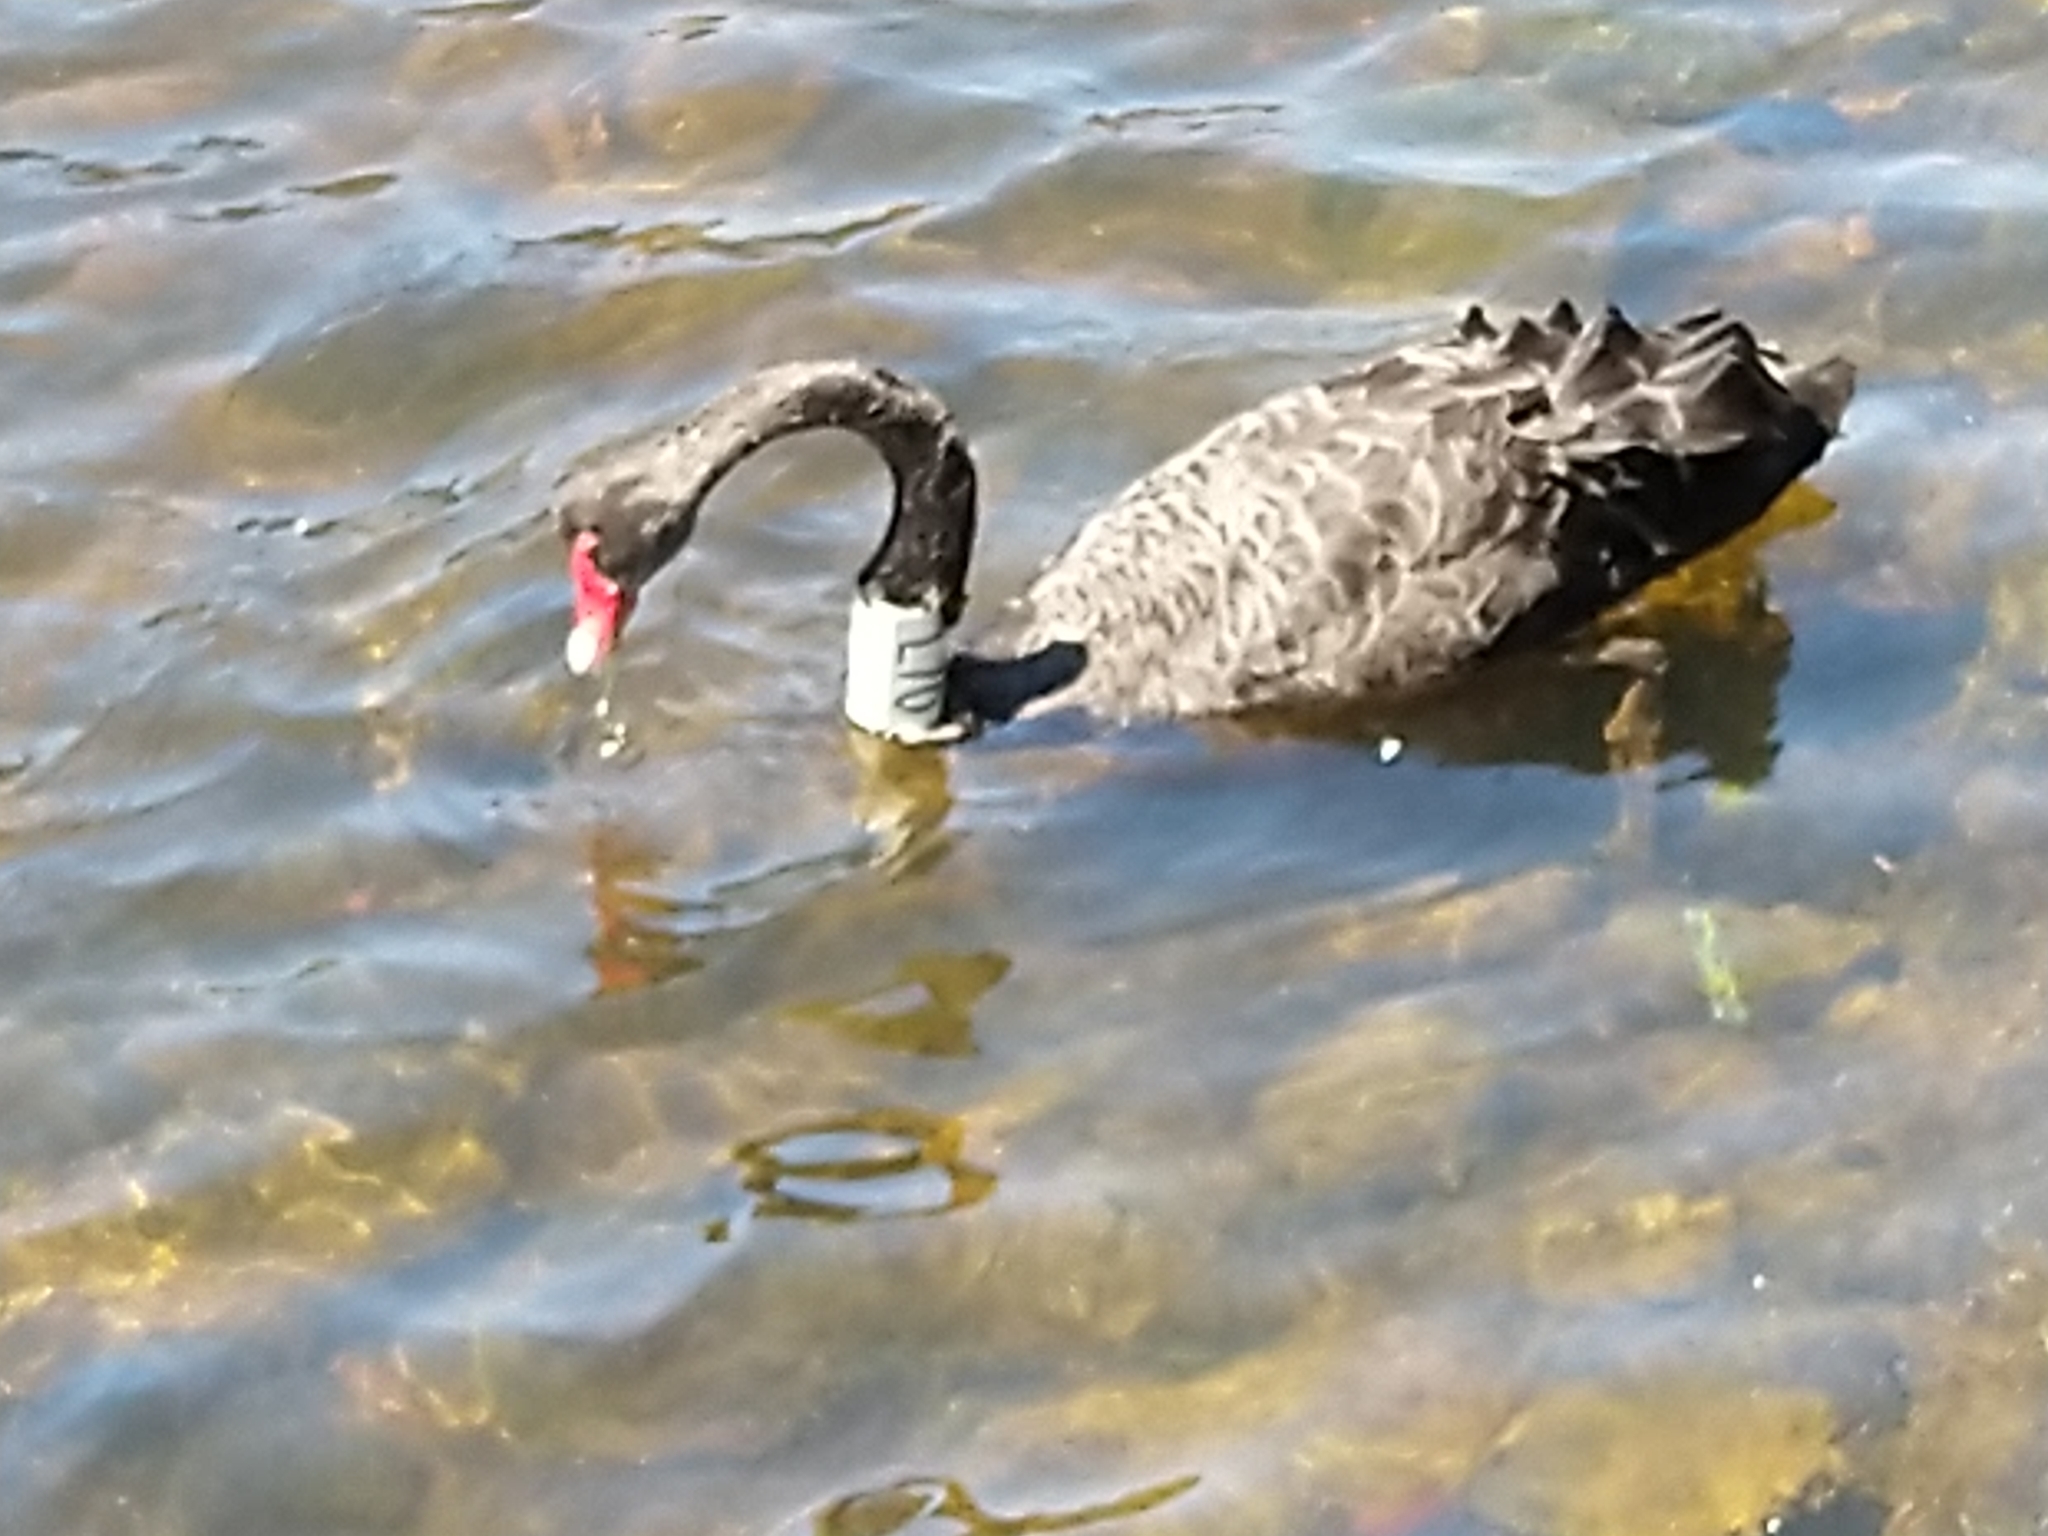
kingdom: Animalia
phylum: Chordata
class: Aves
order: Anseriformes
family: Anatidae
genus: Cygnus
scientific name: Cygnus atratus
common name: Black swan
